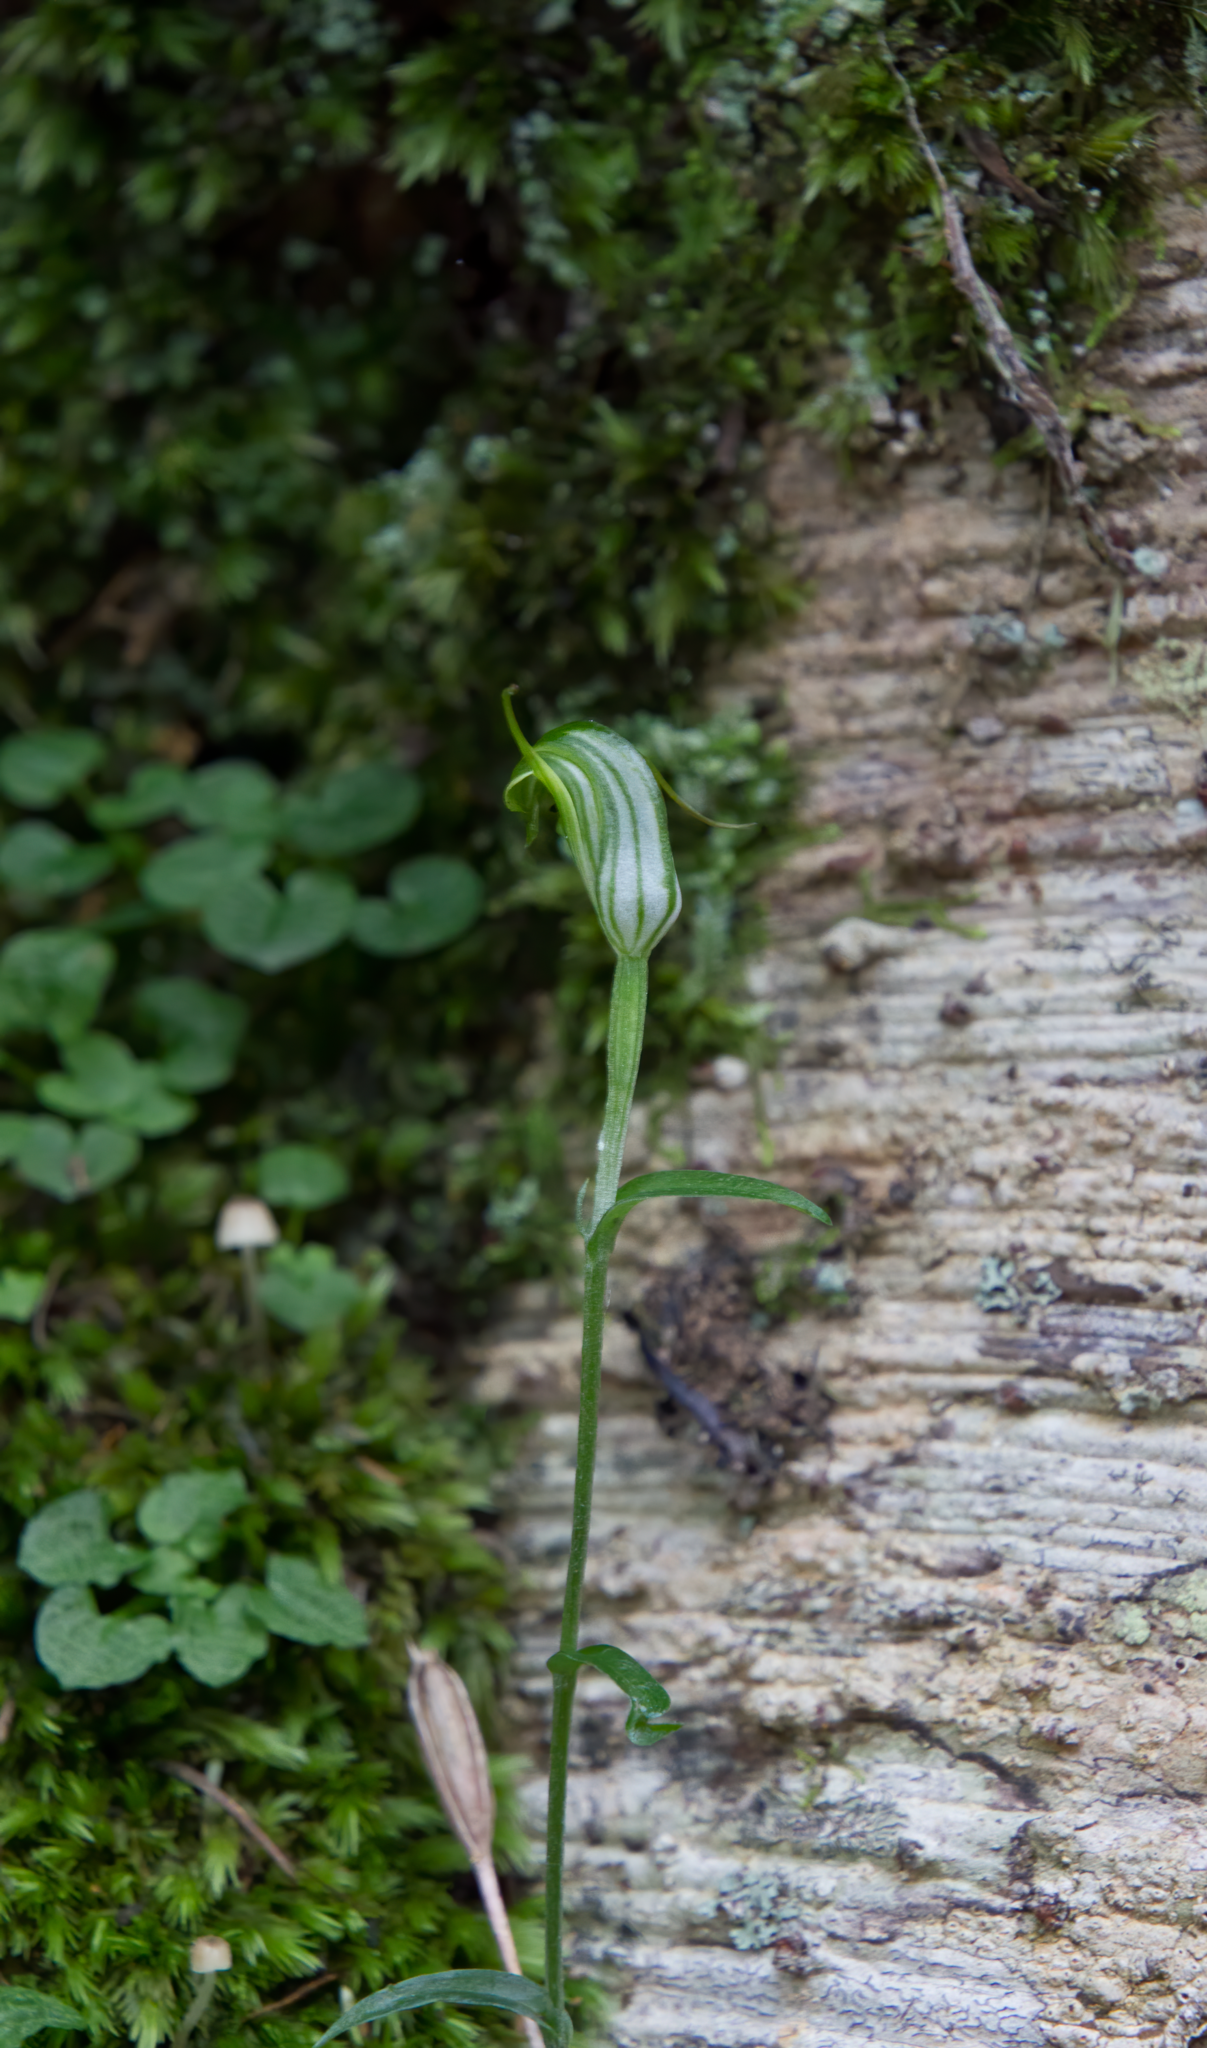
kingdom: Plantae
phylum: Tracheophyta
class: Liliopsida
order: Asparagales
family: Orchidaceae
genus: Pterostylis
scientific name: Pterostylis trullifolia
